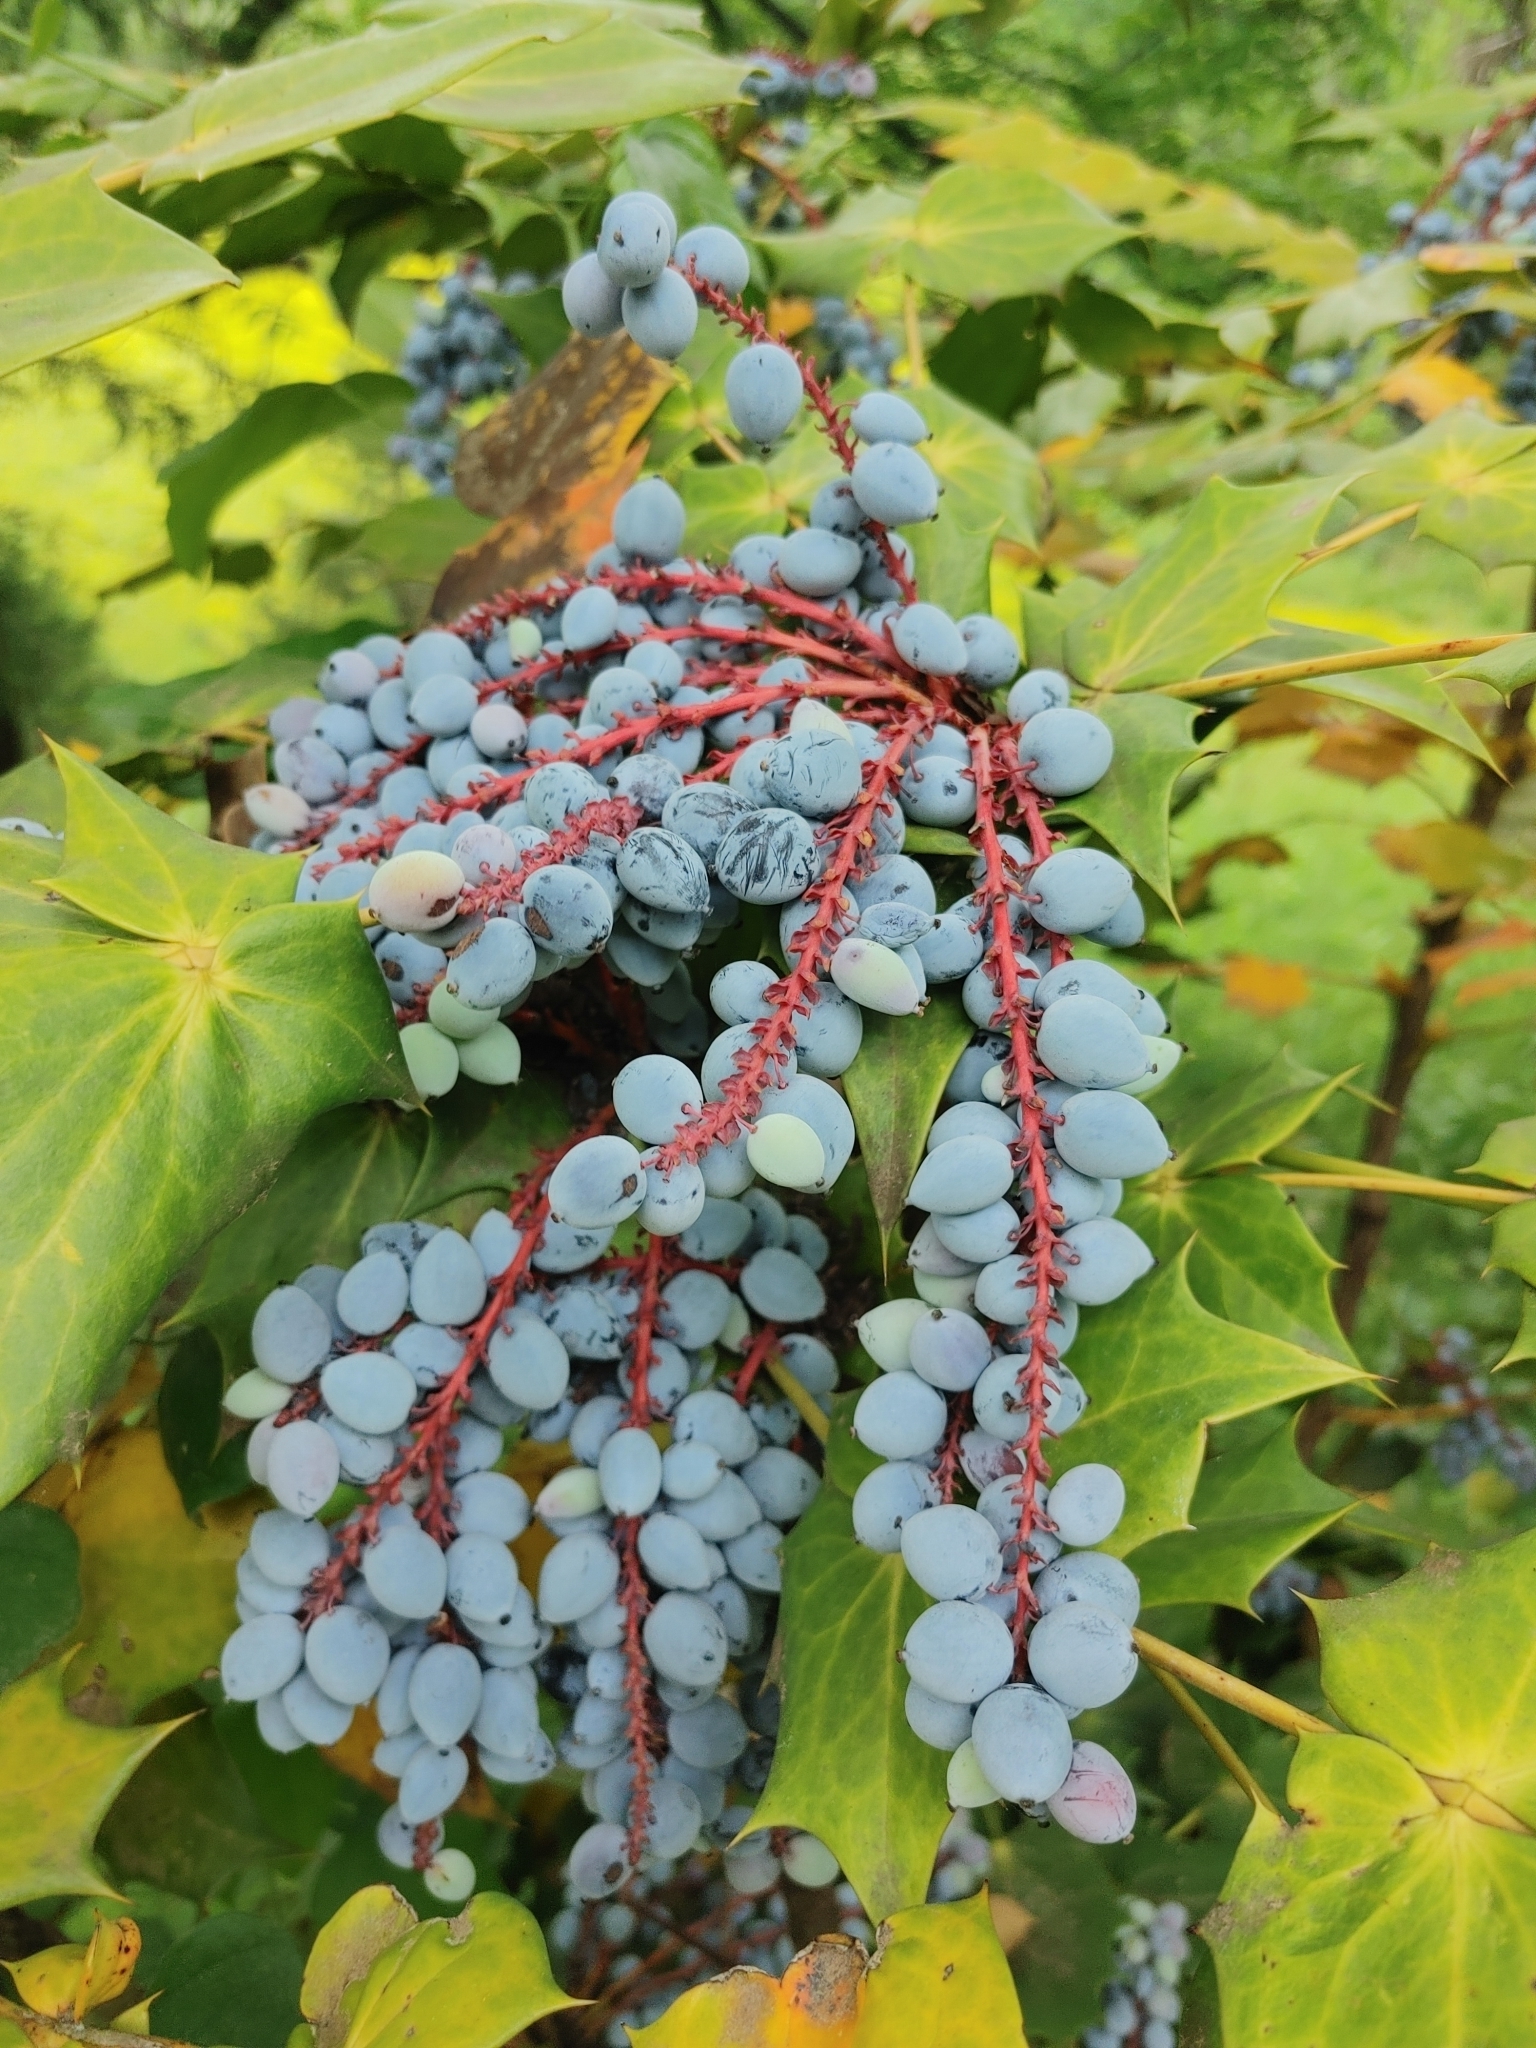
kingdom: Plantae
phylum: Tracheophyta
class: Magnoliopsida
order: Ranunculales
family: Berberidaceae
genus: Mahonia
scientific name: Mahonia bealei
